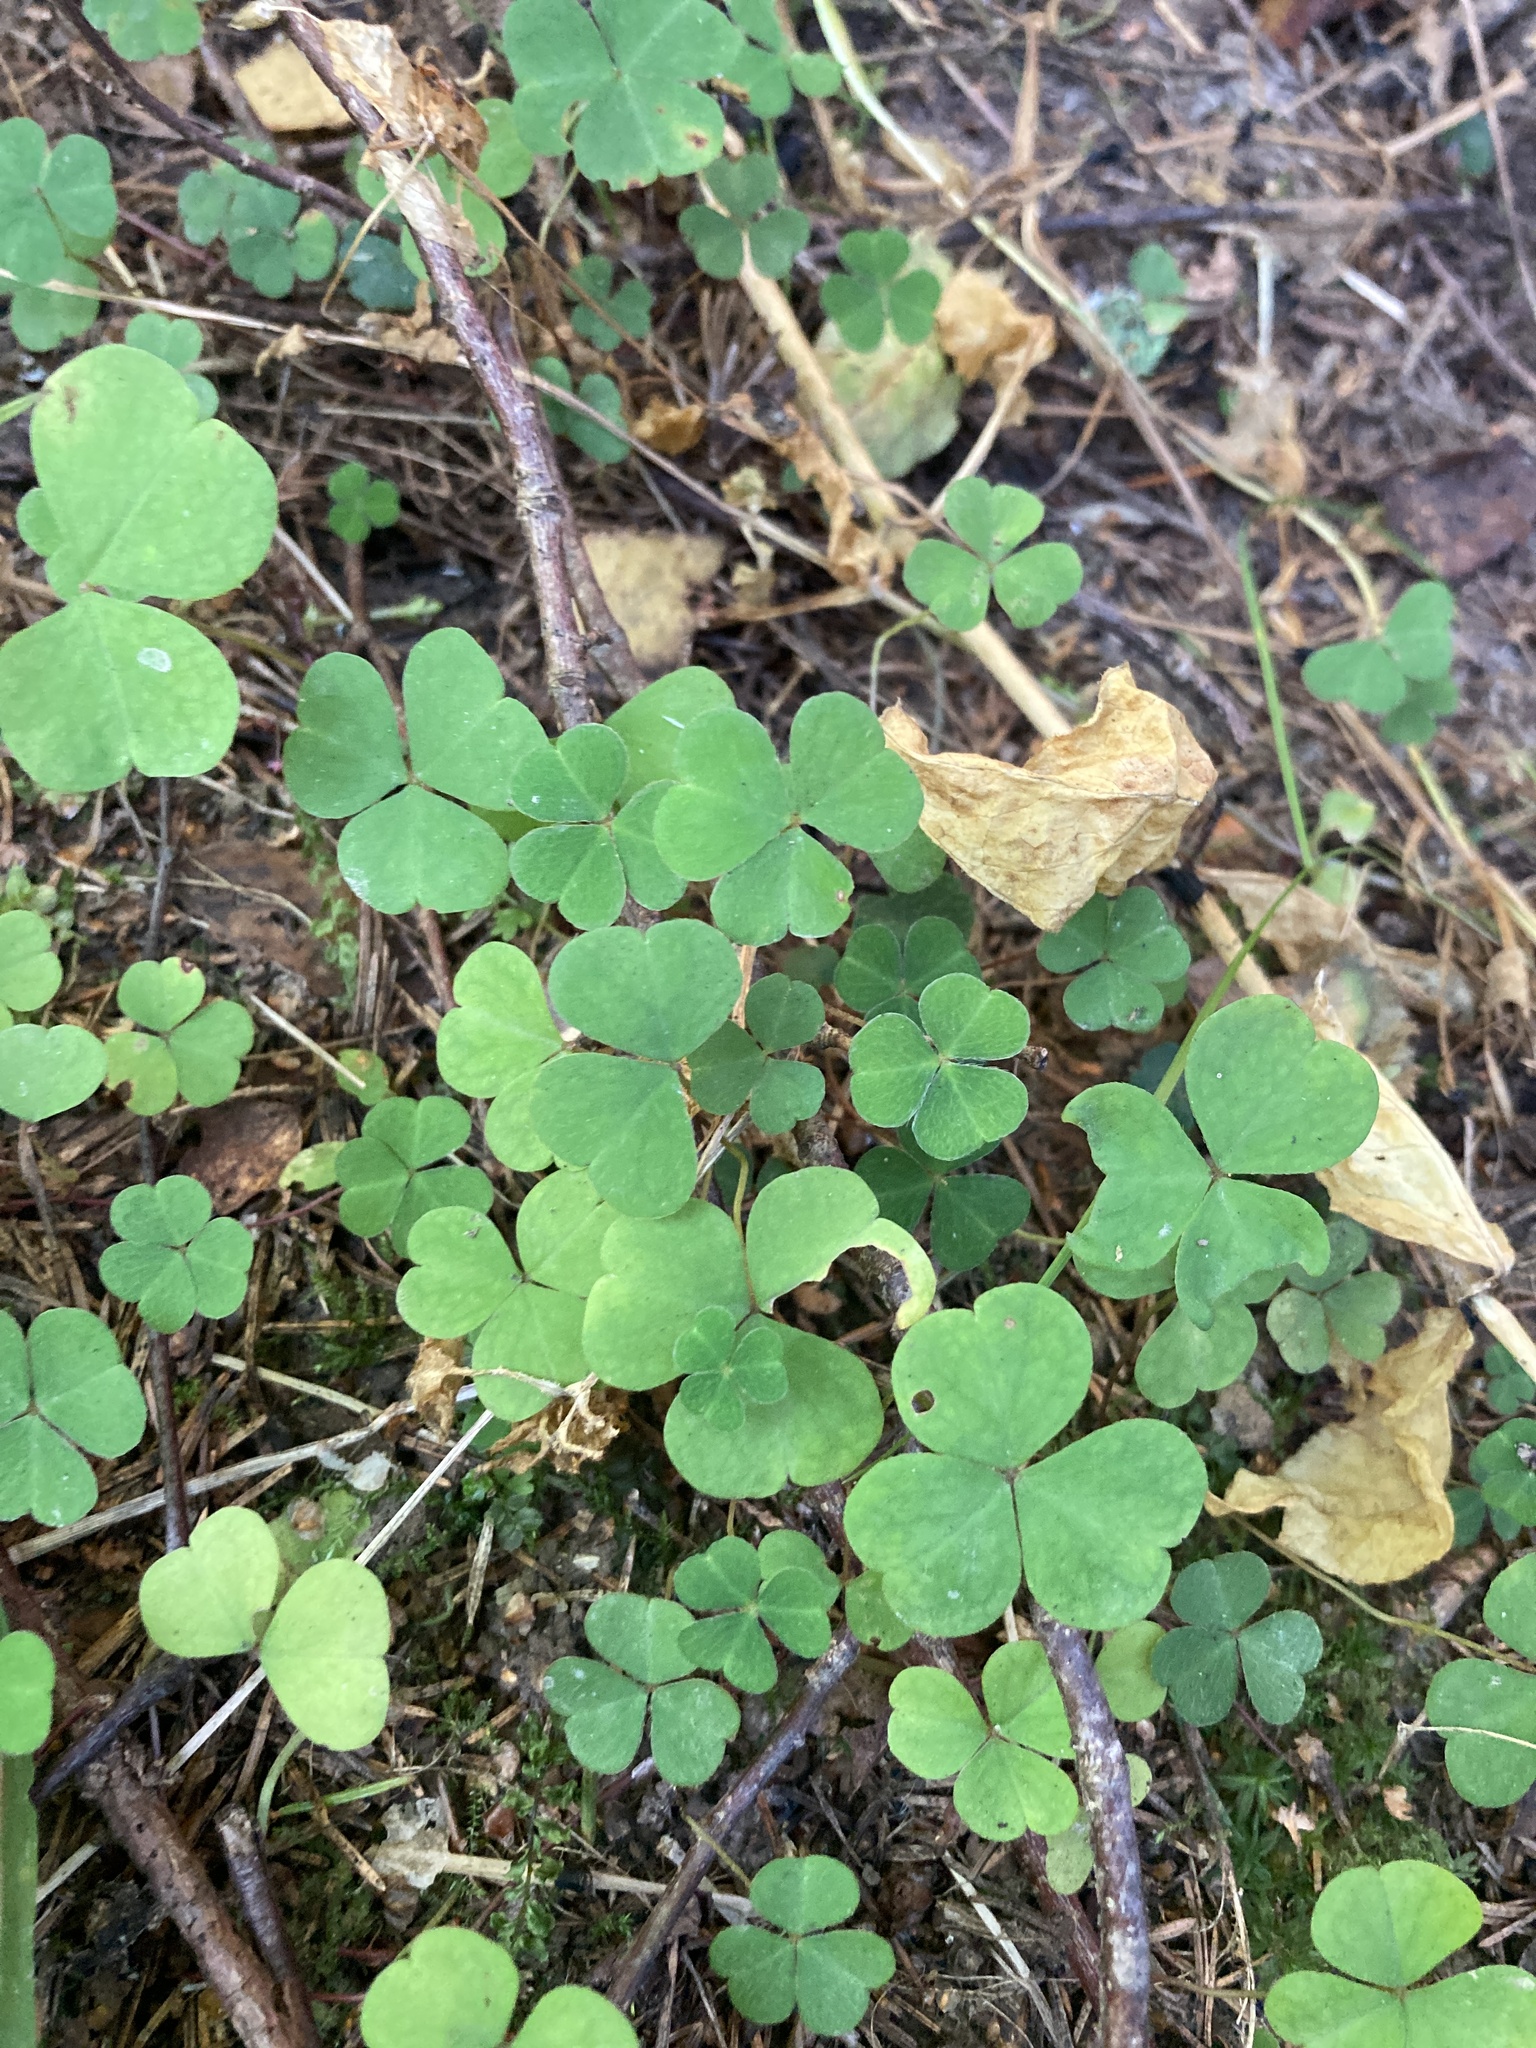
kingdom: Plantae
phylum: Tracheophyta
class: Magnoliopsida
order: Oxalidales
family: Oxalidaceae
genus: Oxalis
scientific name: Oxalis acetosella
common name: Wood-sorrel
